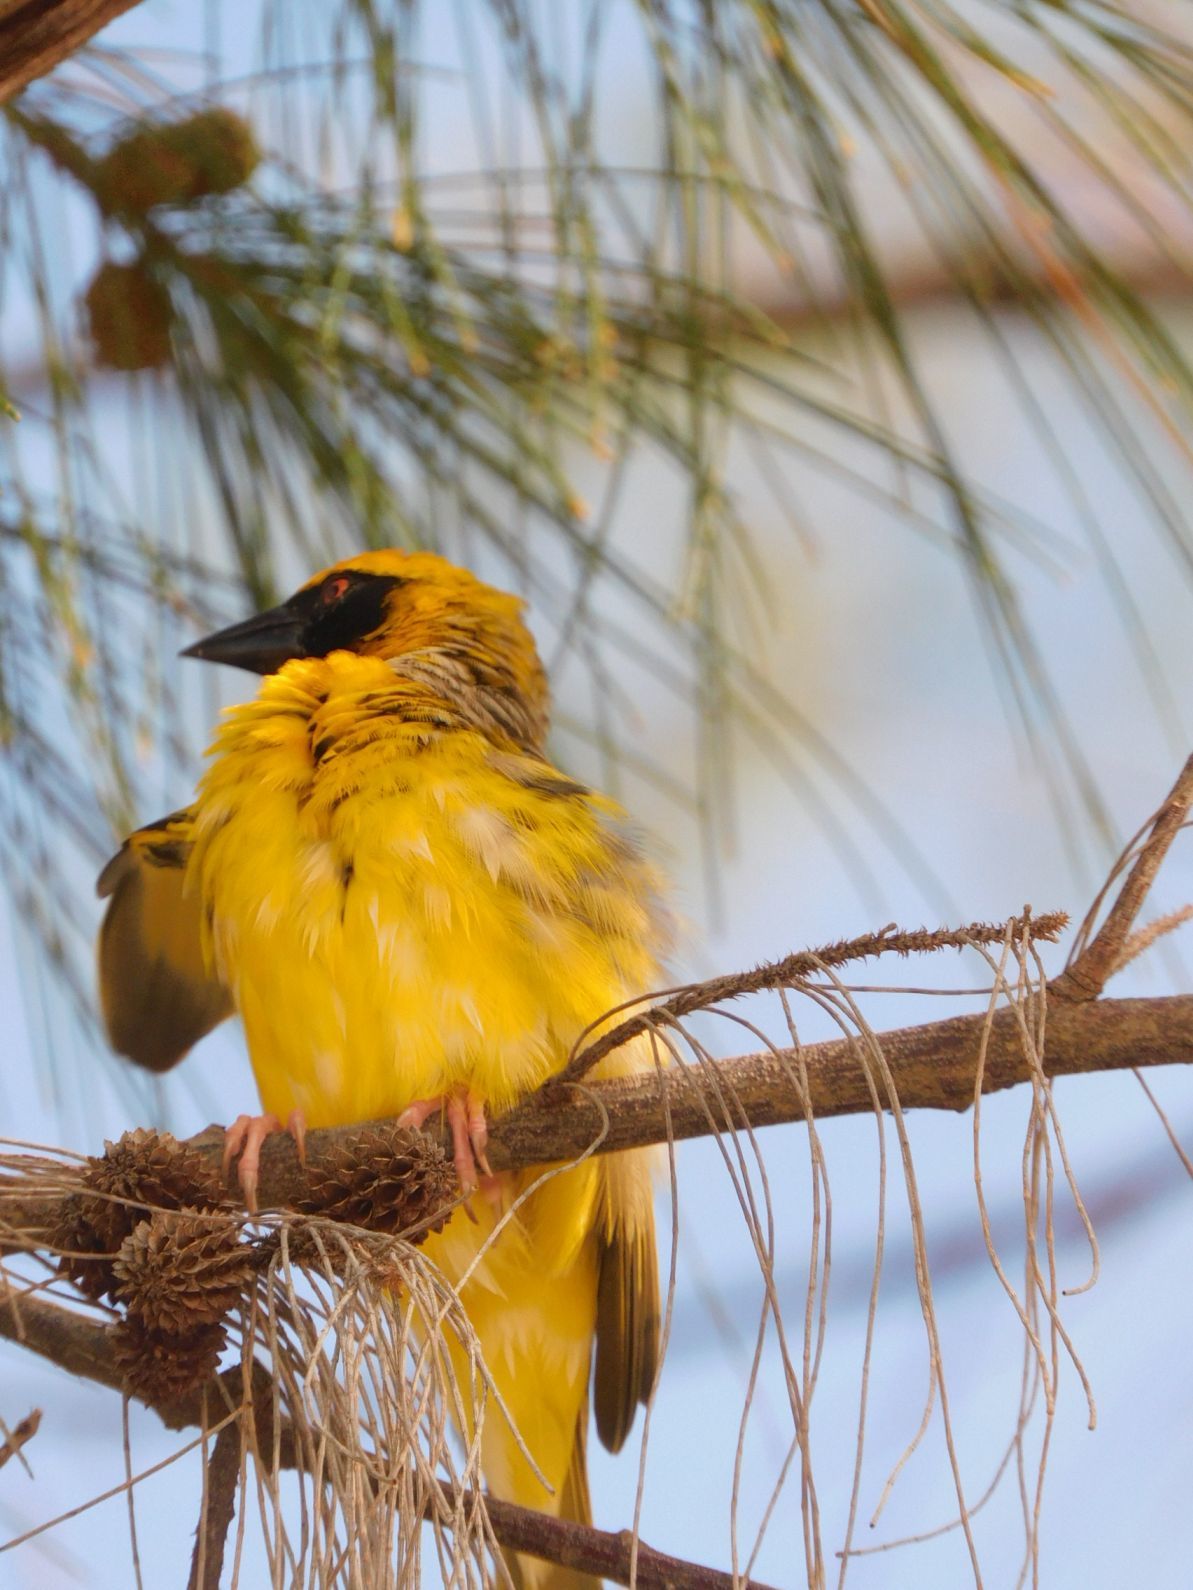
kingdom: Animalia
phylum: Chordata
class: Aves
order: Passeriformes
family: Ploceidae
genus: Ploceus
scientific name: Ploceus cucullatus
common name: Village weaver
